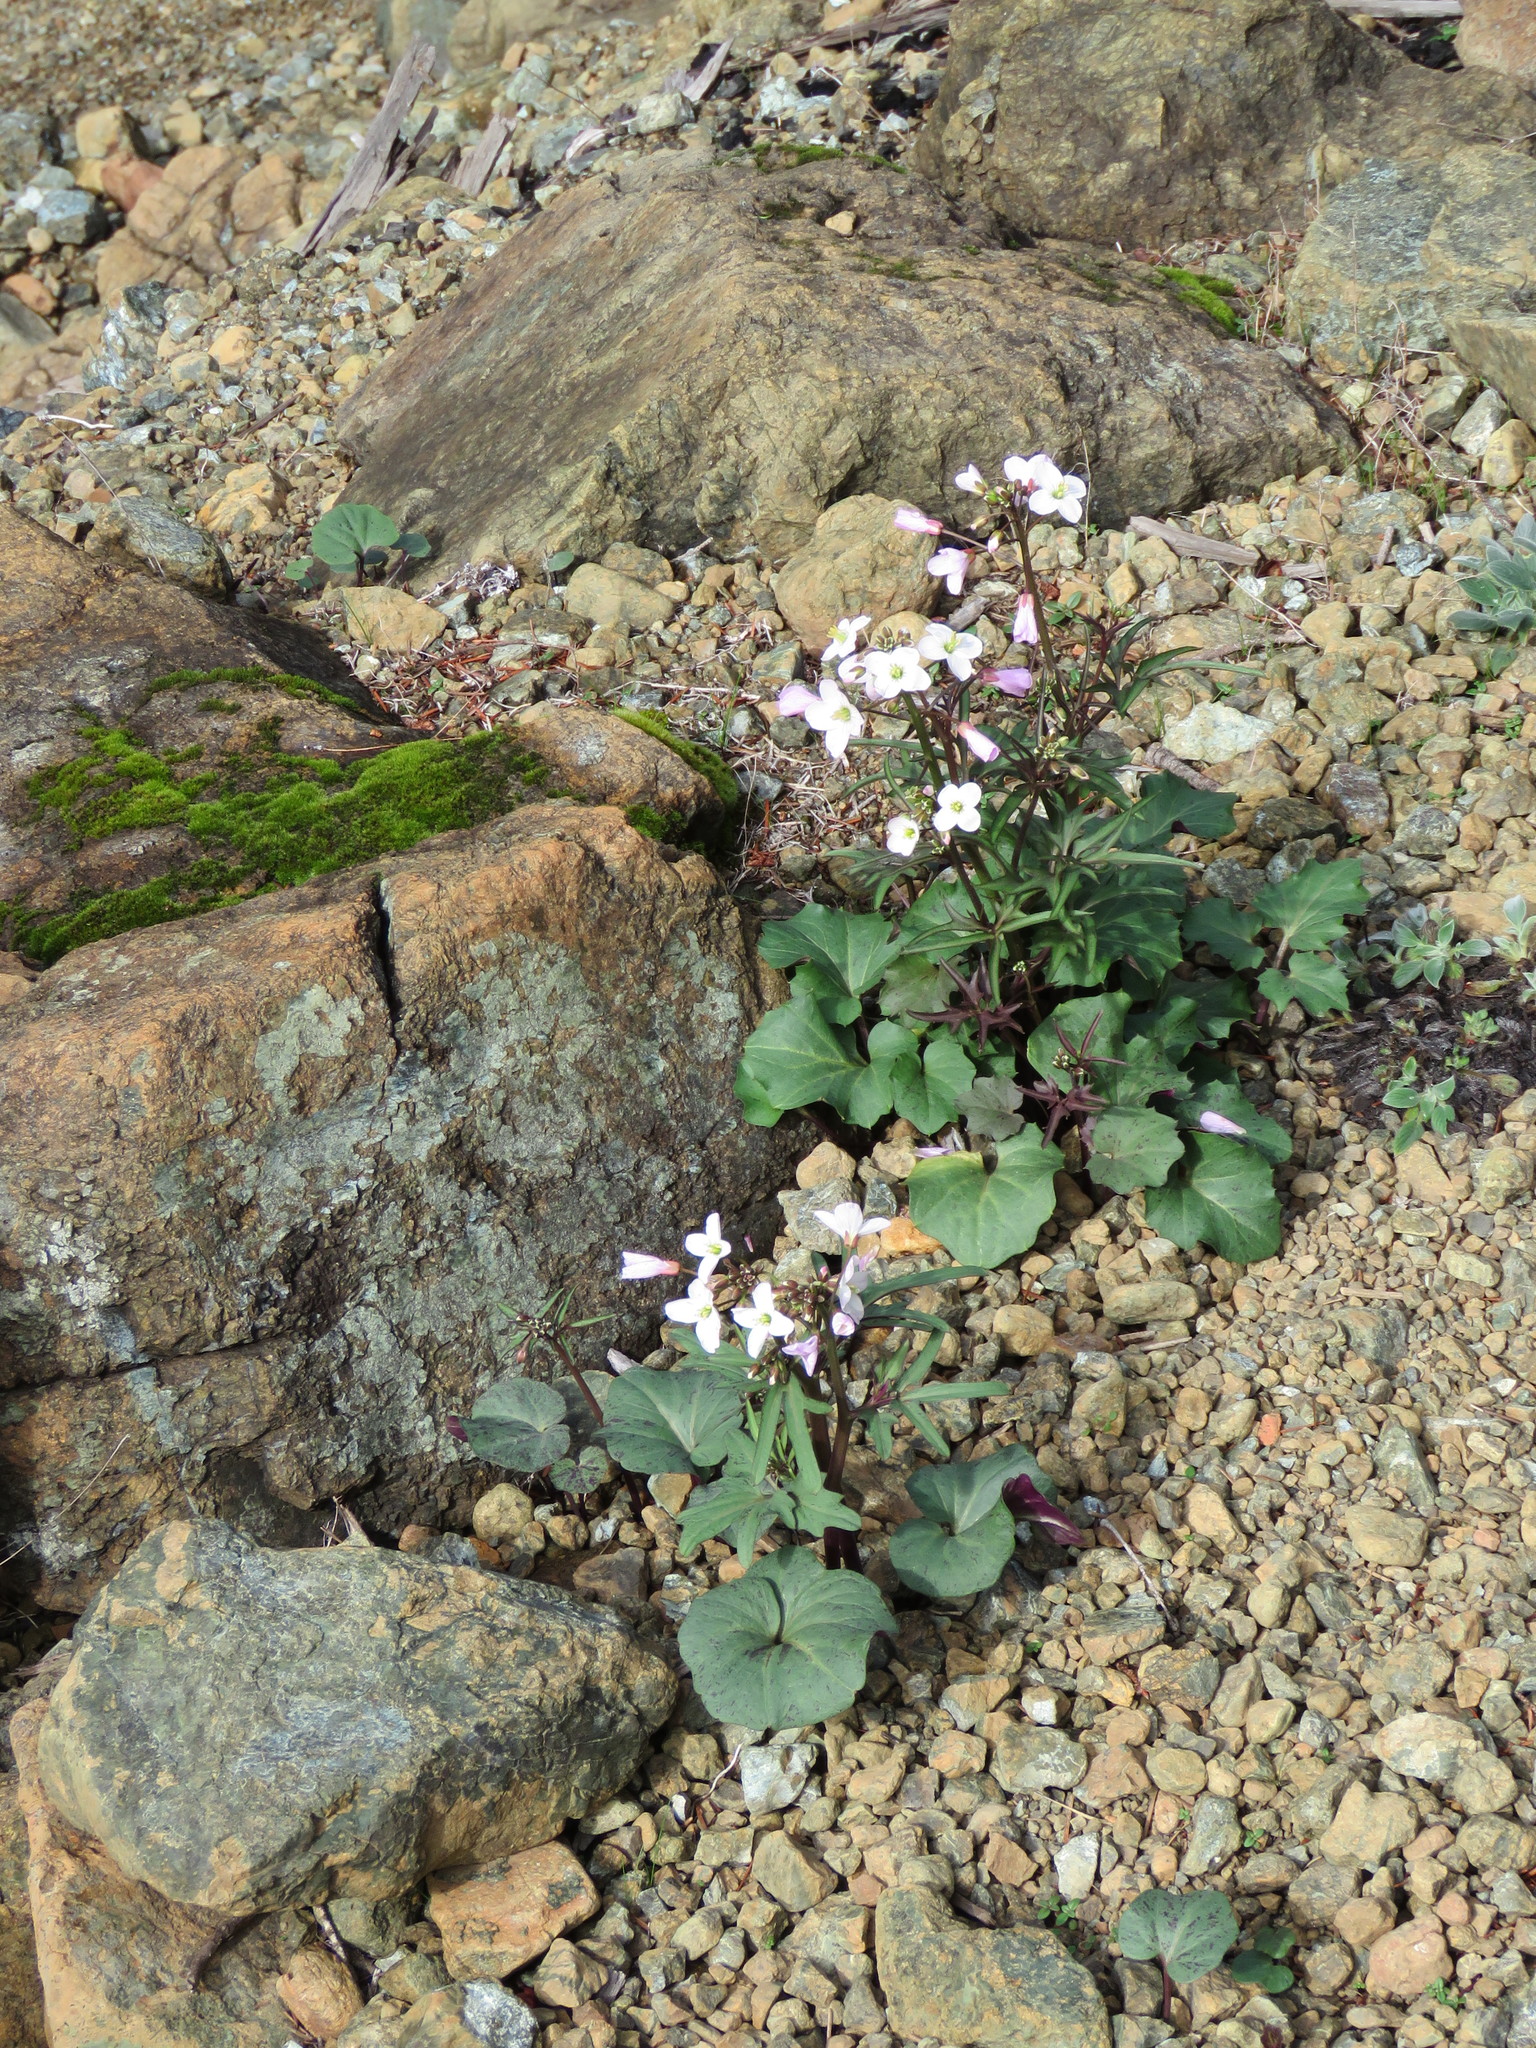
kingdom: Plantae
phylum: Tracheophyta
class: Magnoliopsida
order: Brassicales
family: Brassicaceae
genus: Cardamine
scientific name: Cardamine californica
